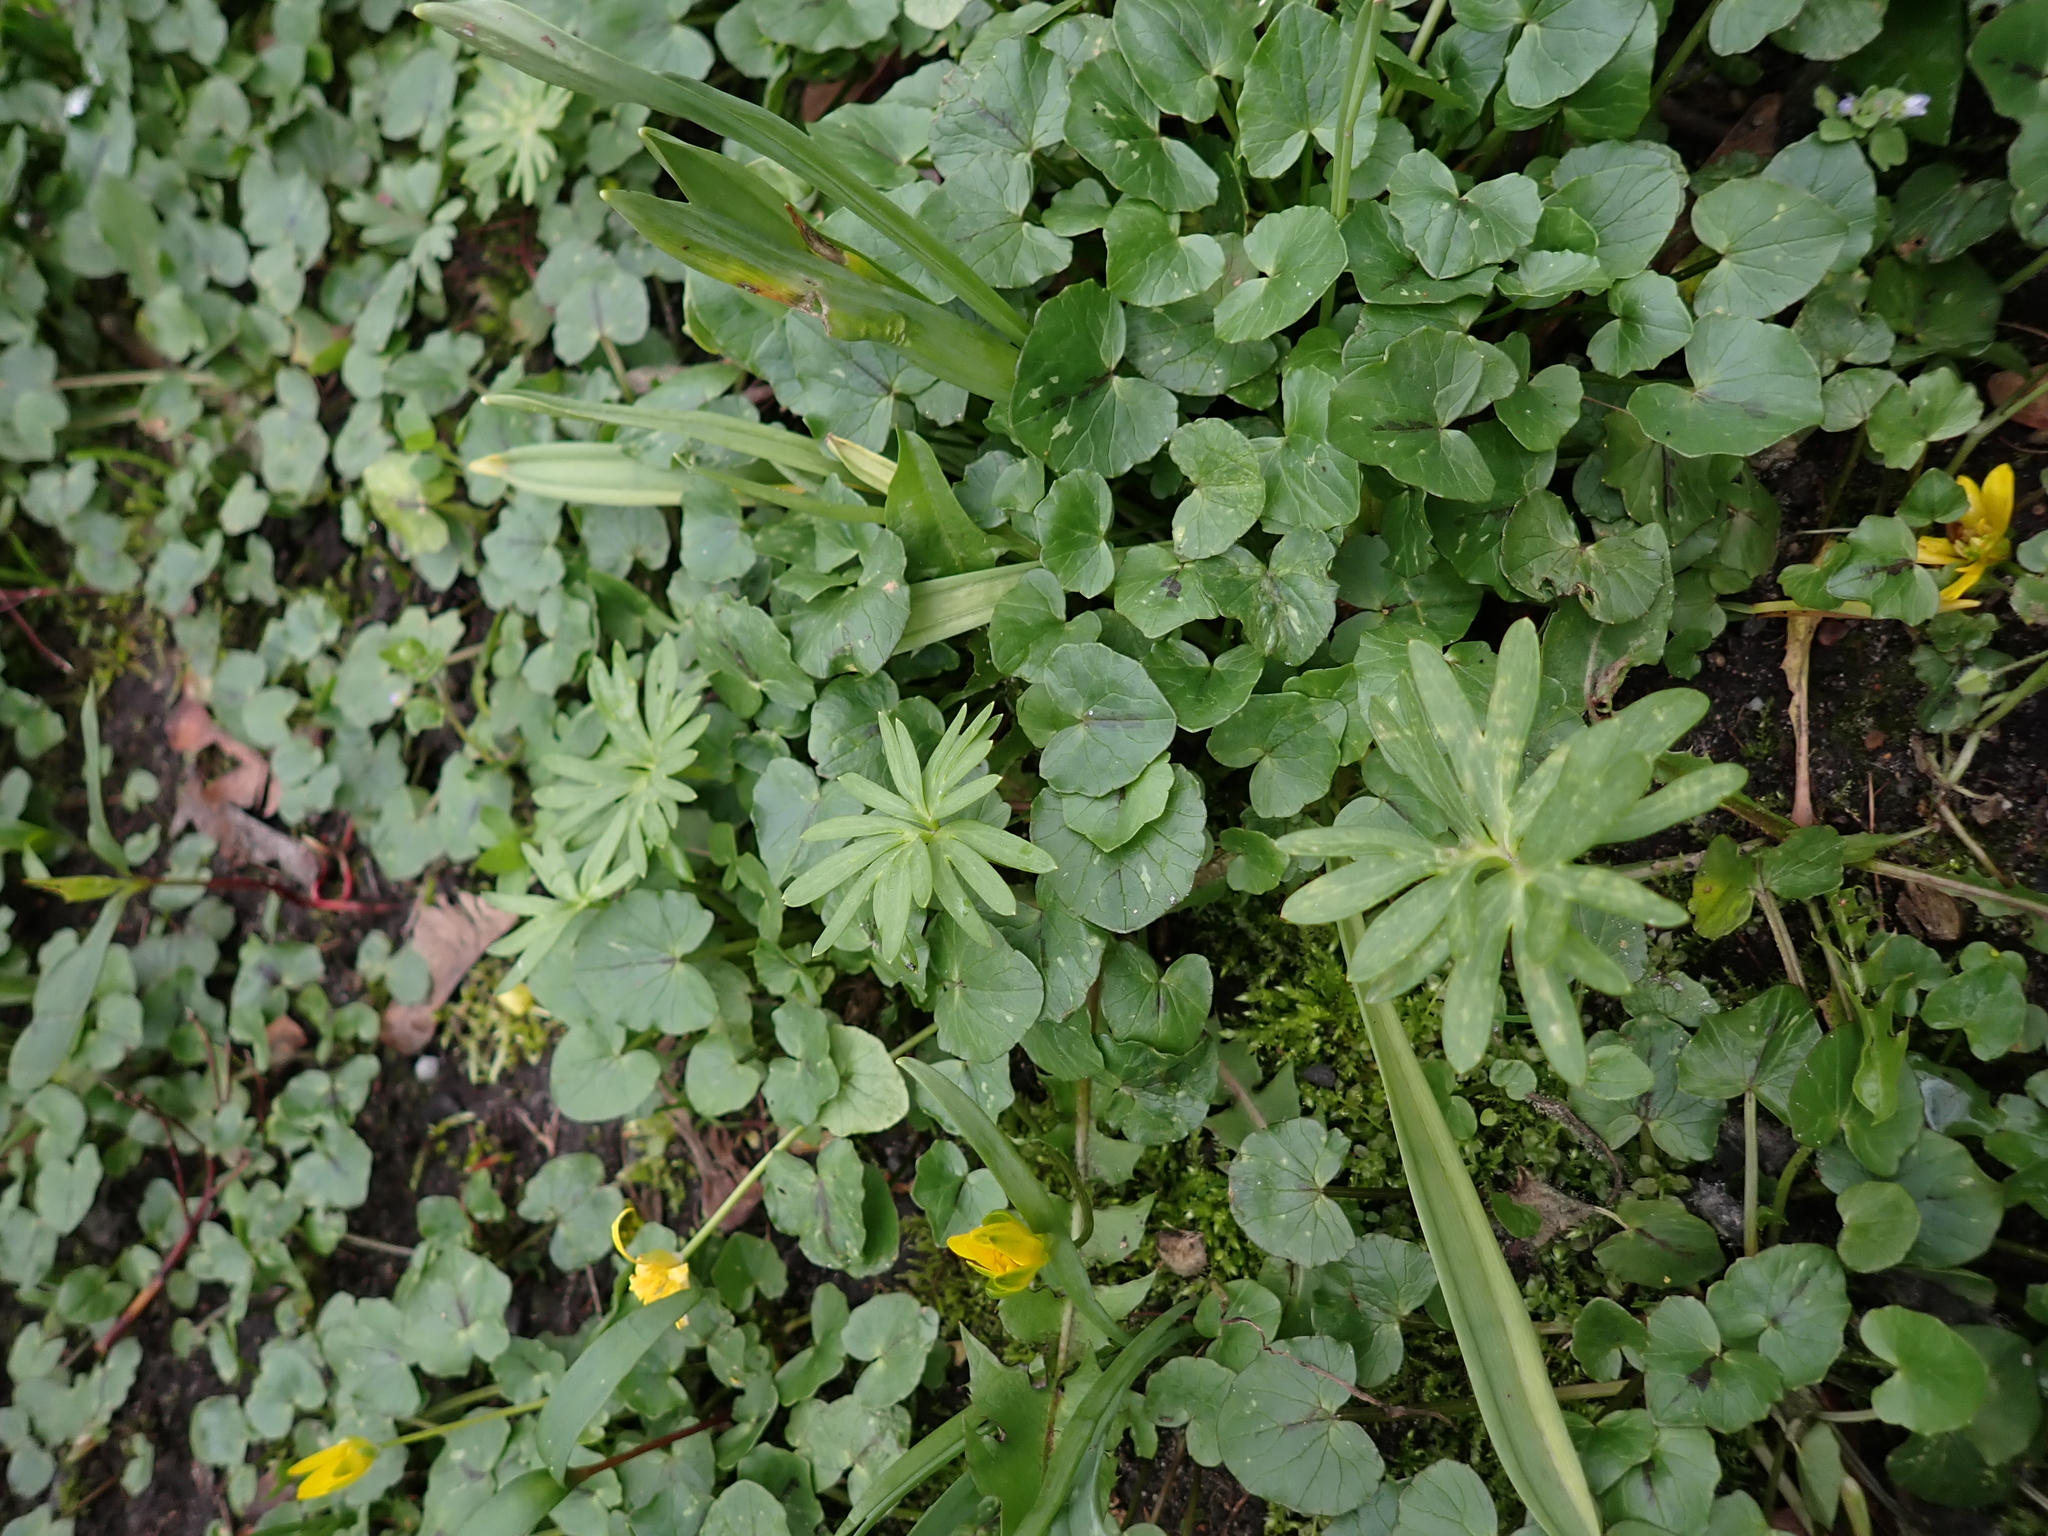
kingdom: Plantae
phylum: Tracheophyta
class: Magnoliopsida
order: Ranunculales
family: Ranunculaceae
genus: Eranthis
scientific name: Eranthis hyemalis
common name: Winter aconite
